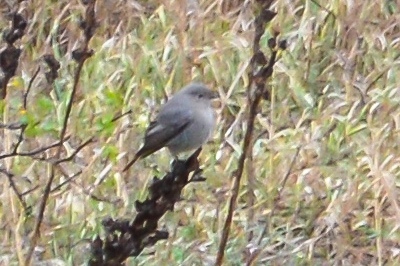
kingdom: Animalia
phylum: Chordata
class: Aves
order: Passeriformes
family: Muscicapidae
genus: Phoenicurus
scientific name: Phoenicurus ochruros
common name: Black redstart
